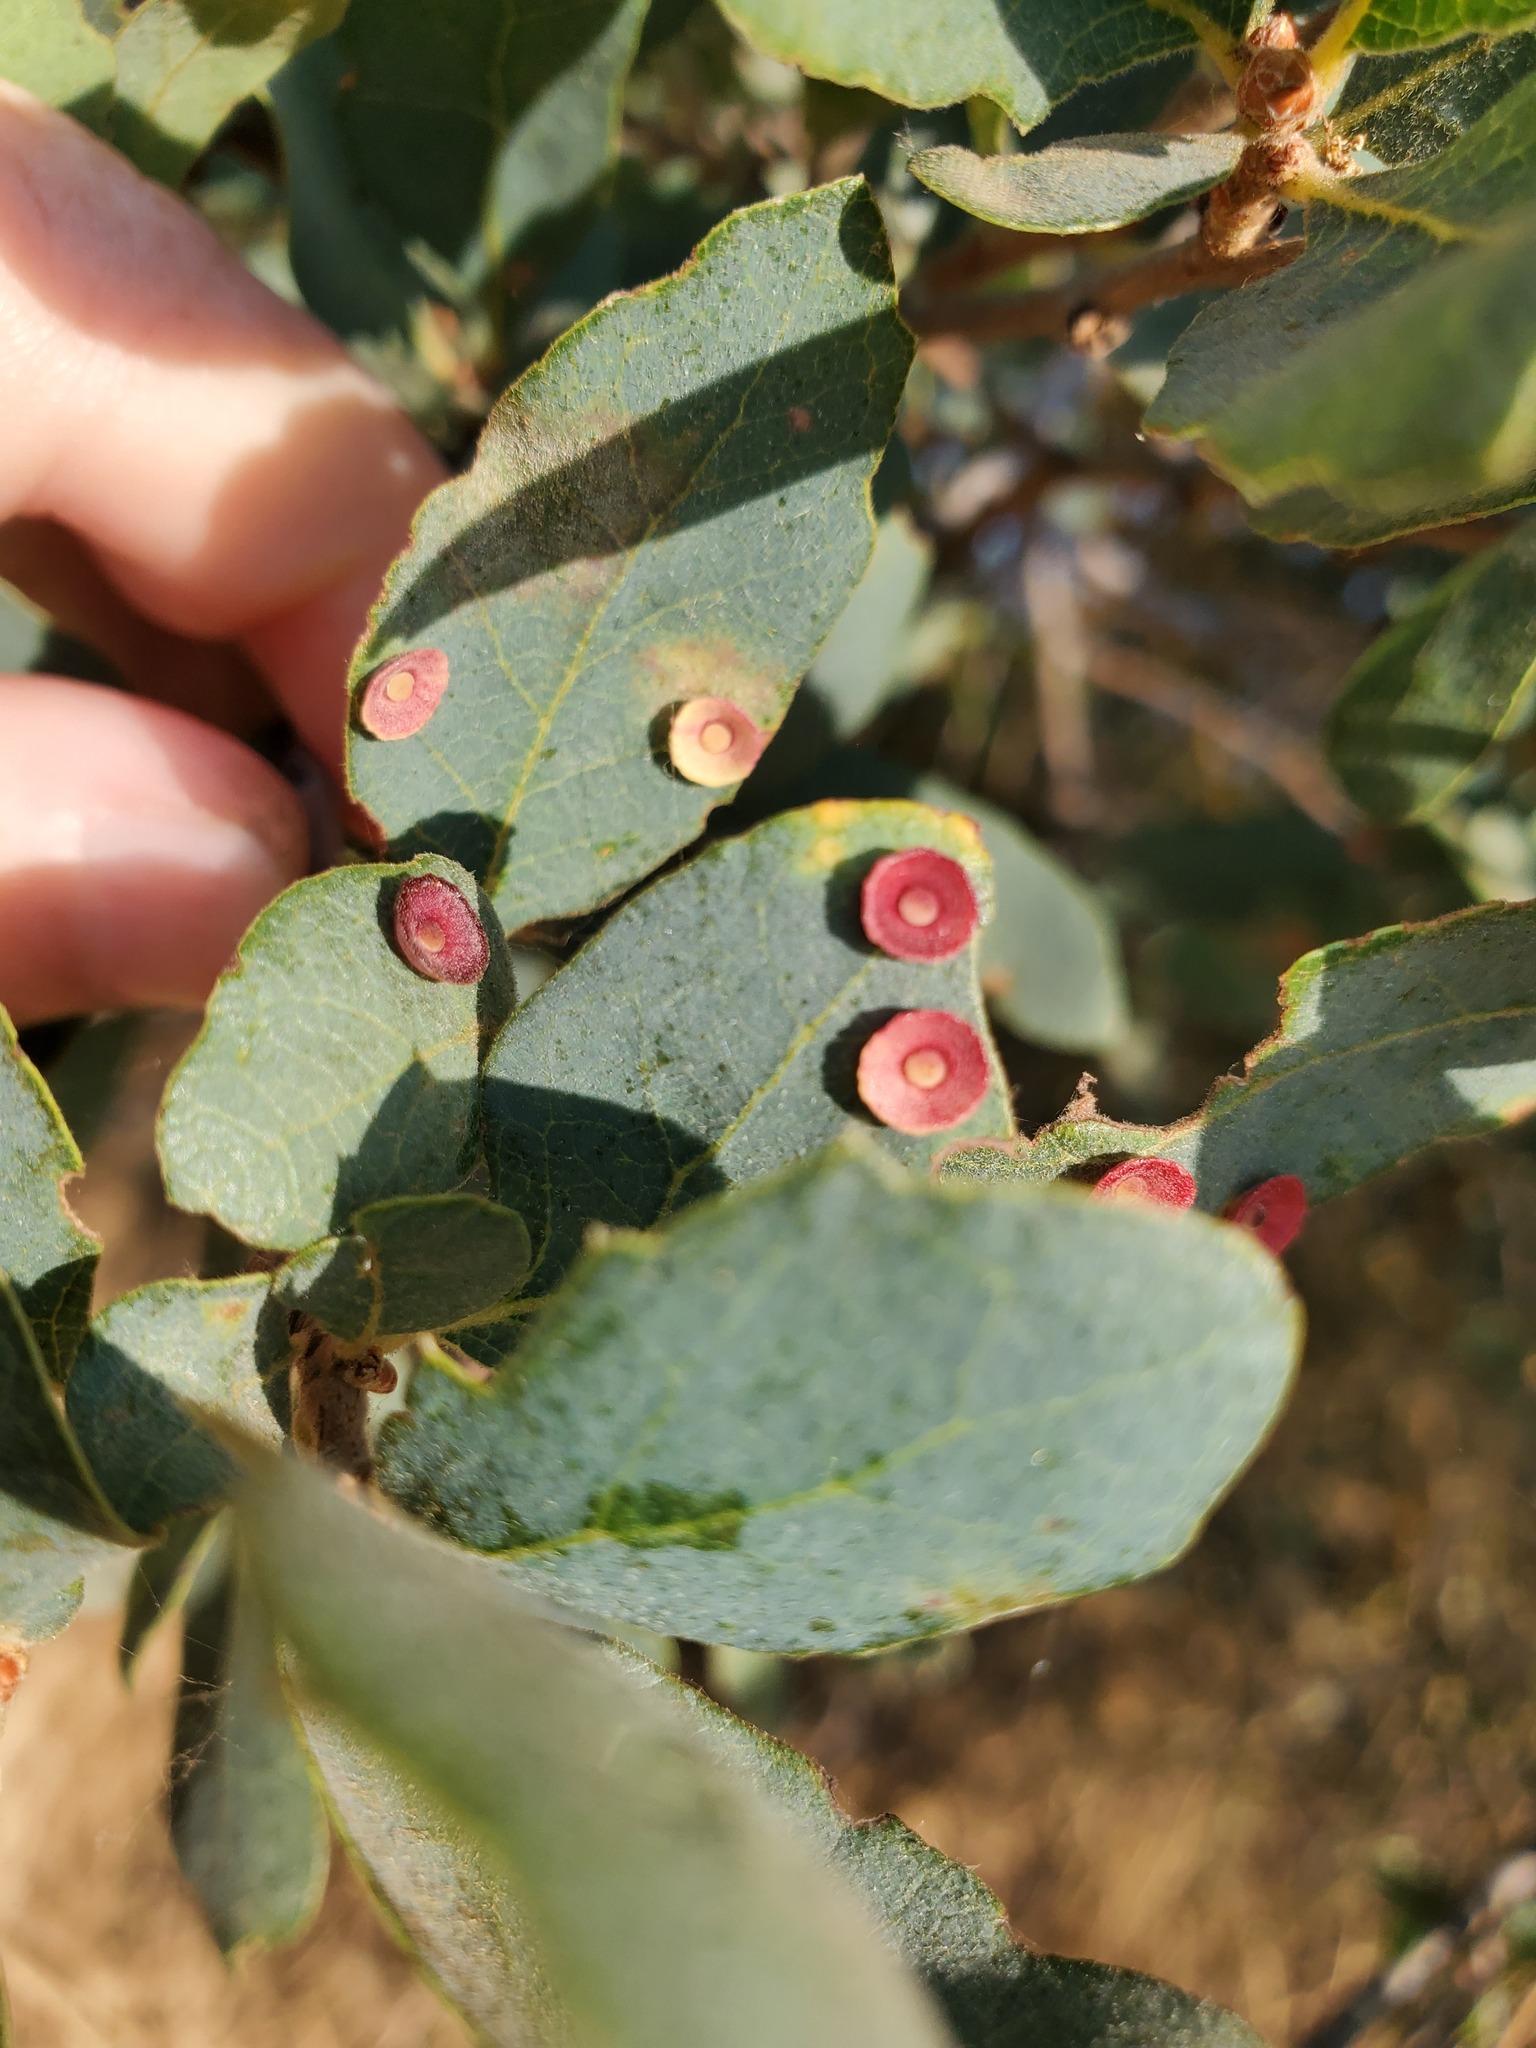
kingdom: Animalia
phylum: Arthropoda
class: Insecta
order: Hymenoptera
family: Cynipidae
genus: Andricus
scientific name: Andricus
